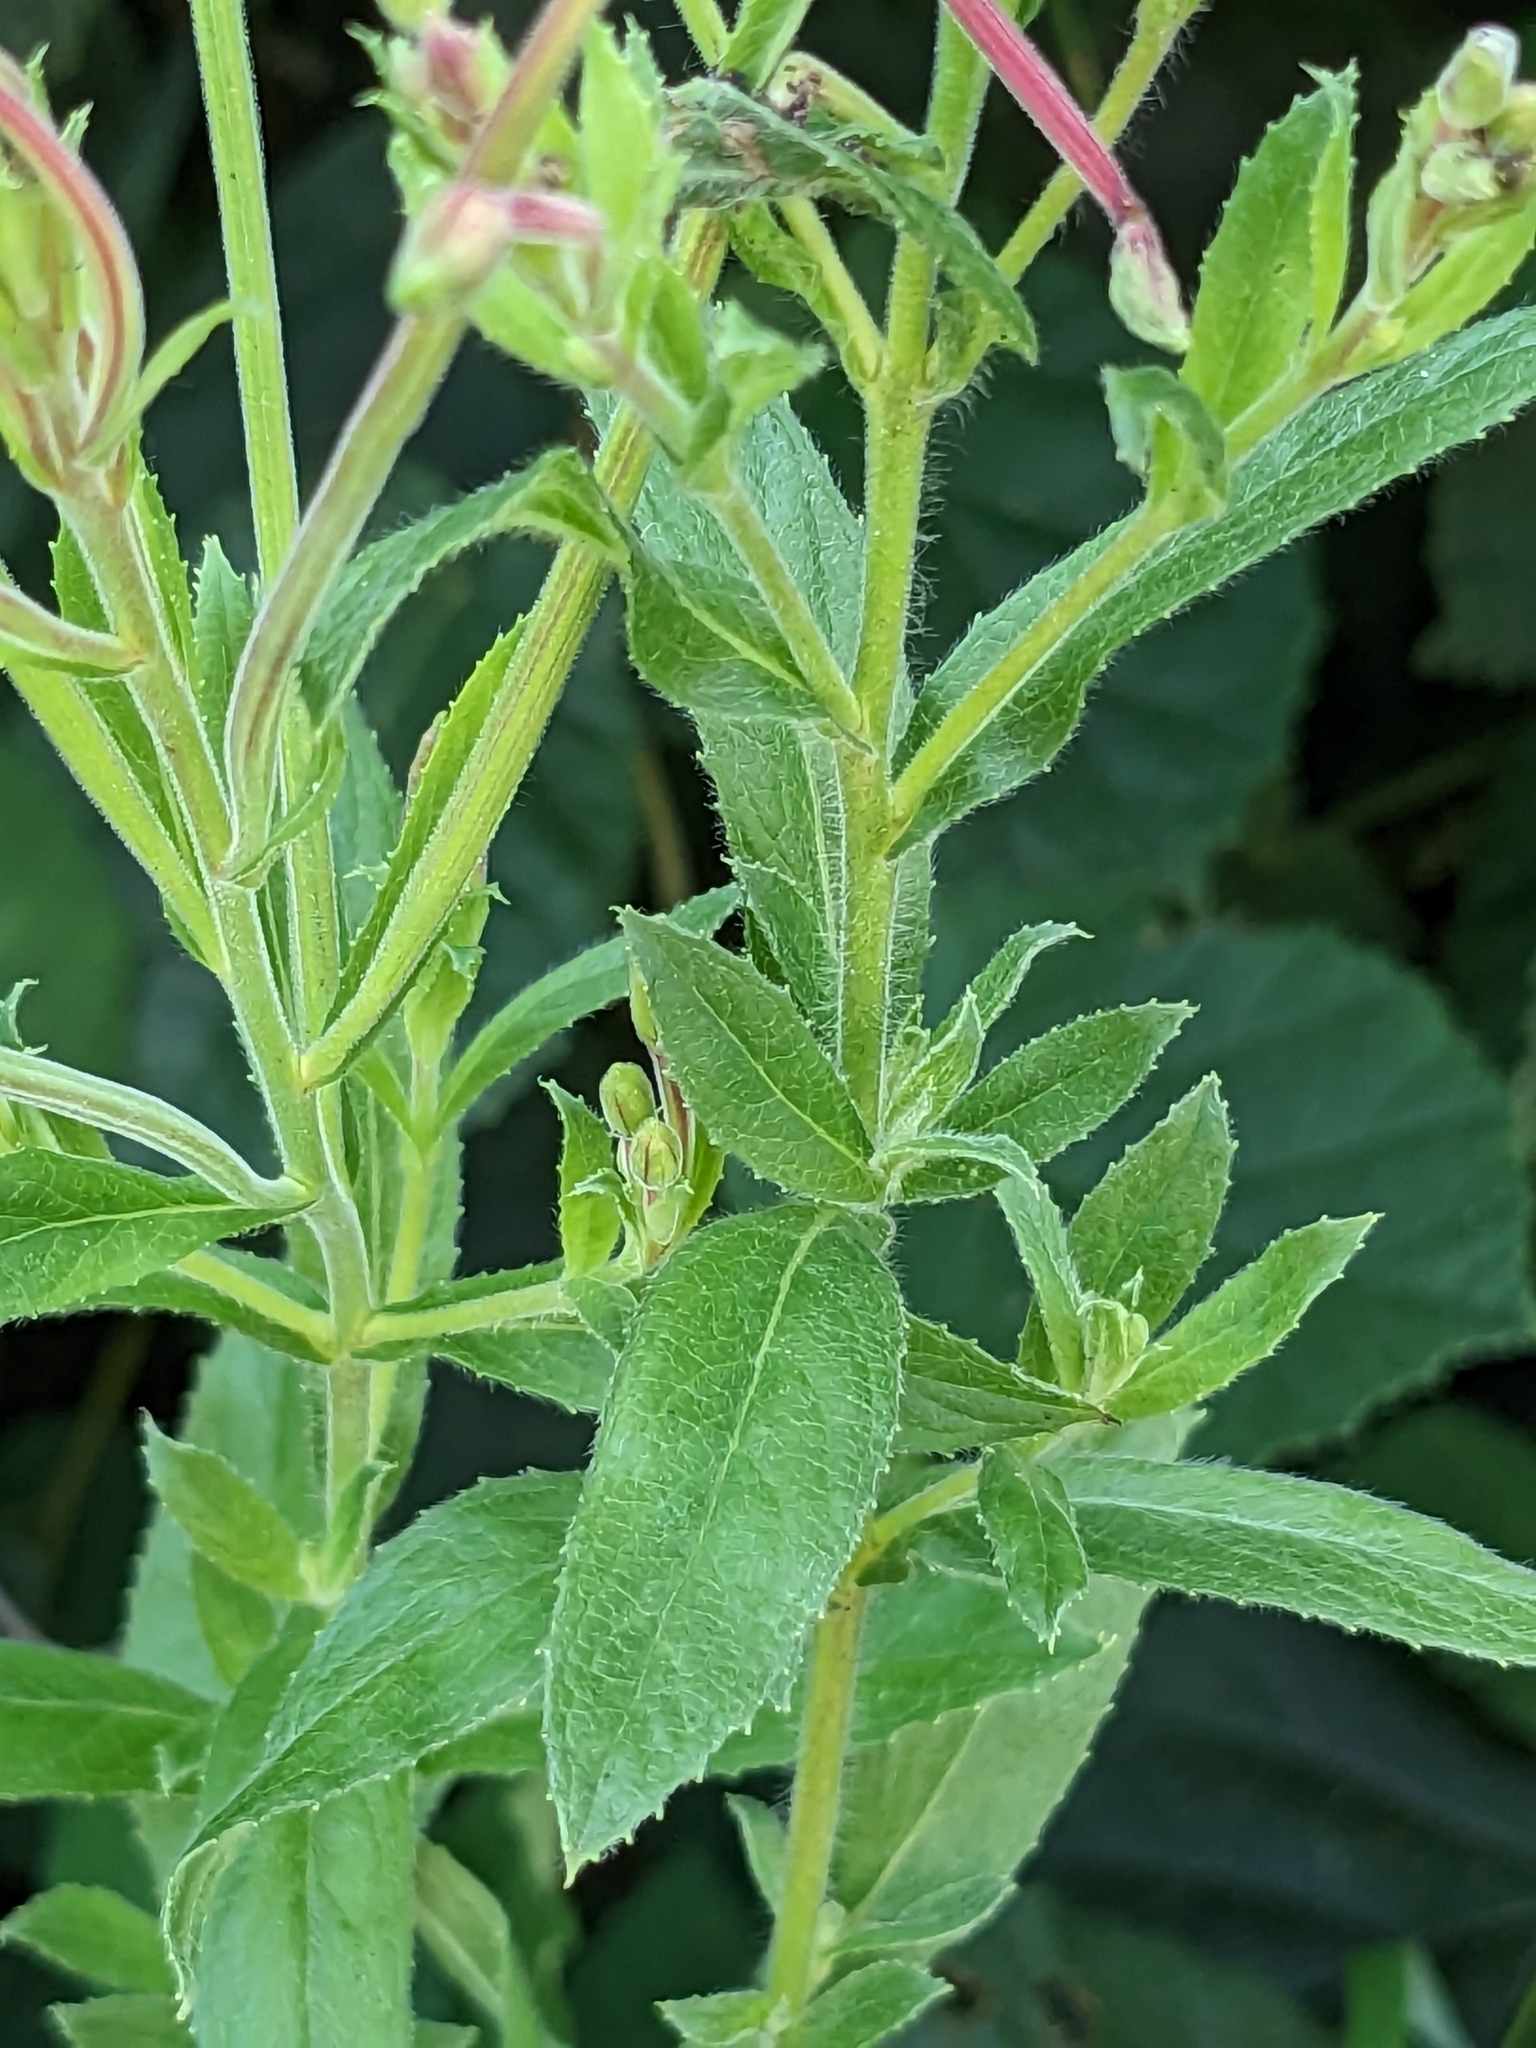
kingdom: Plantae
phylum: Tracheophyta
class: Magnoliopsida
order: Myrtales
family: Onagraceae
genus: Epilobium
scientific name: Epilobium hirsutum
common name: Great willowherb
